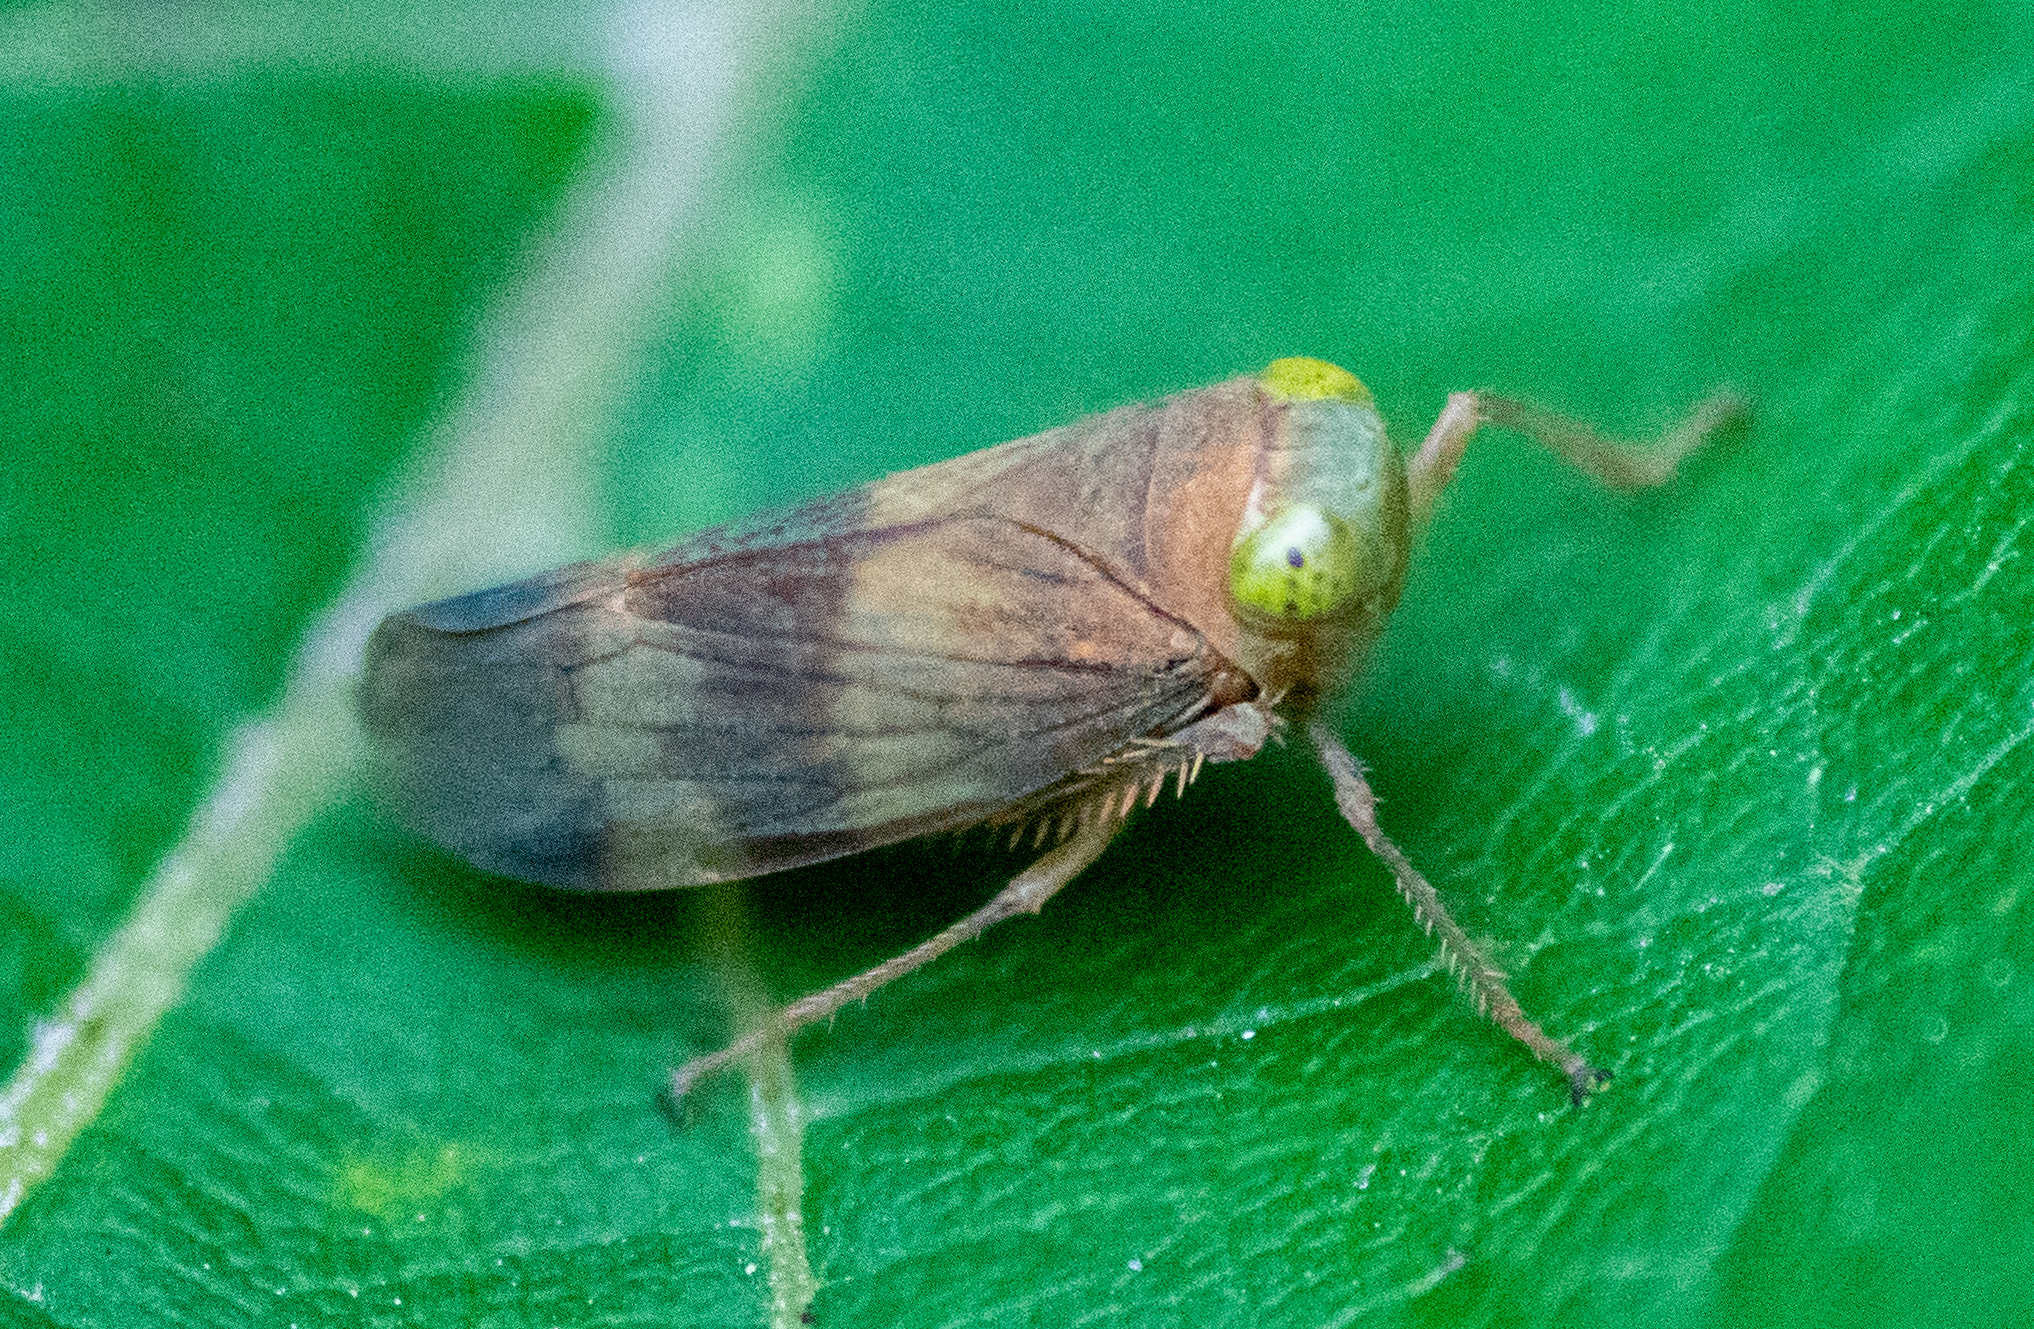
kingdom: Animalia
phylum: Arthropoda
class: Insecta
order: Hemiptera
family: Cicadellidae
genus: Jikradia
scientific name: Jikradia olitoria
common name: Coppery leafhopper
